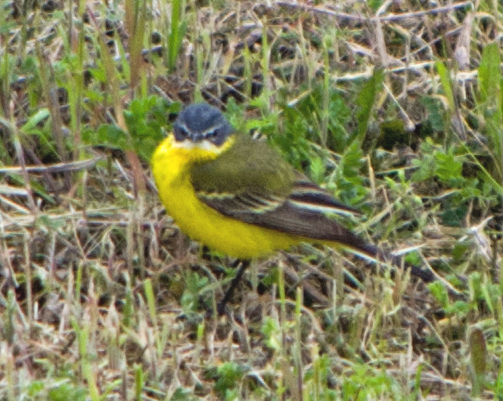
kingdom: Animalia
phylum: Chordata
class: Aves
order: Passeriformes
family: Motacillidae
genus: Motacilla
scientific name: Motacilla flava
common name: Western yellow wagtail
